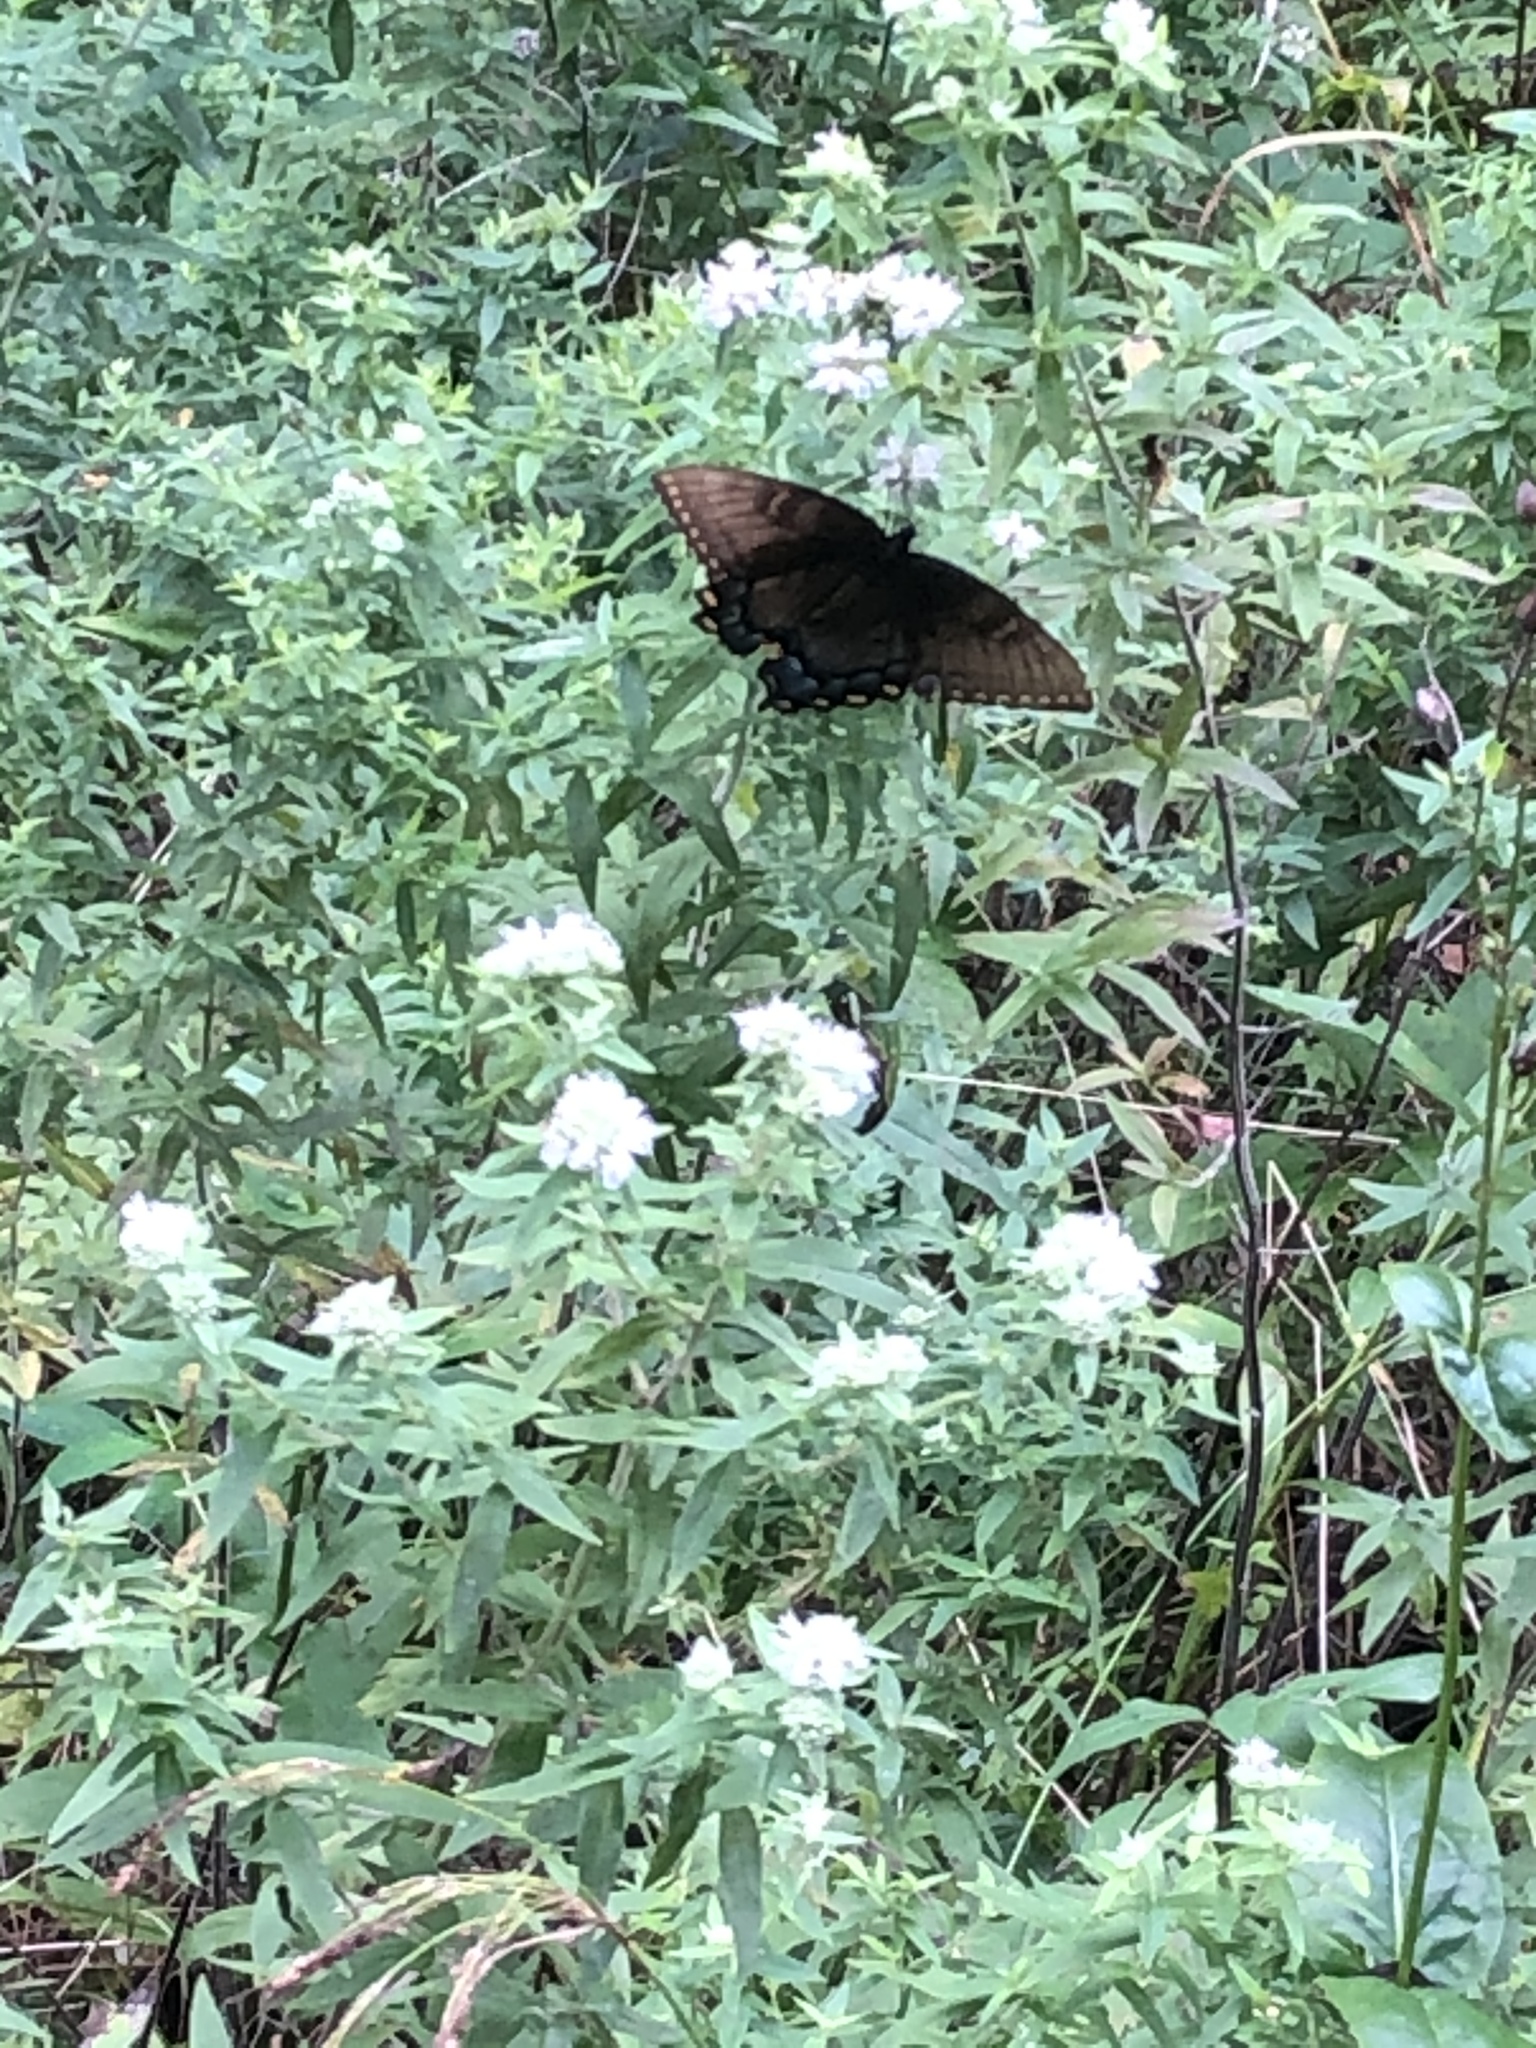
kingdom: Animalia
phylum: Arthropoda
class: Insecta
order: Lepidoptera
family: Papilionidae
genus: Papilio
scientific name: Papilio glaucus
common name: Tiger swallowtail
